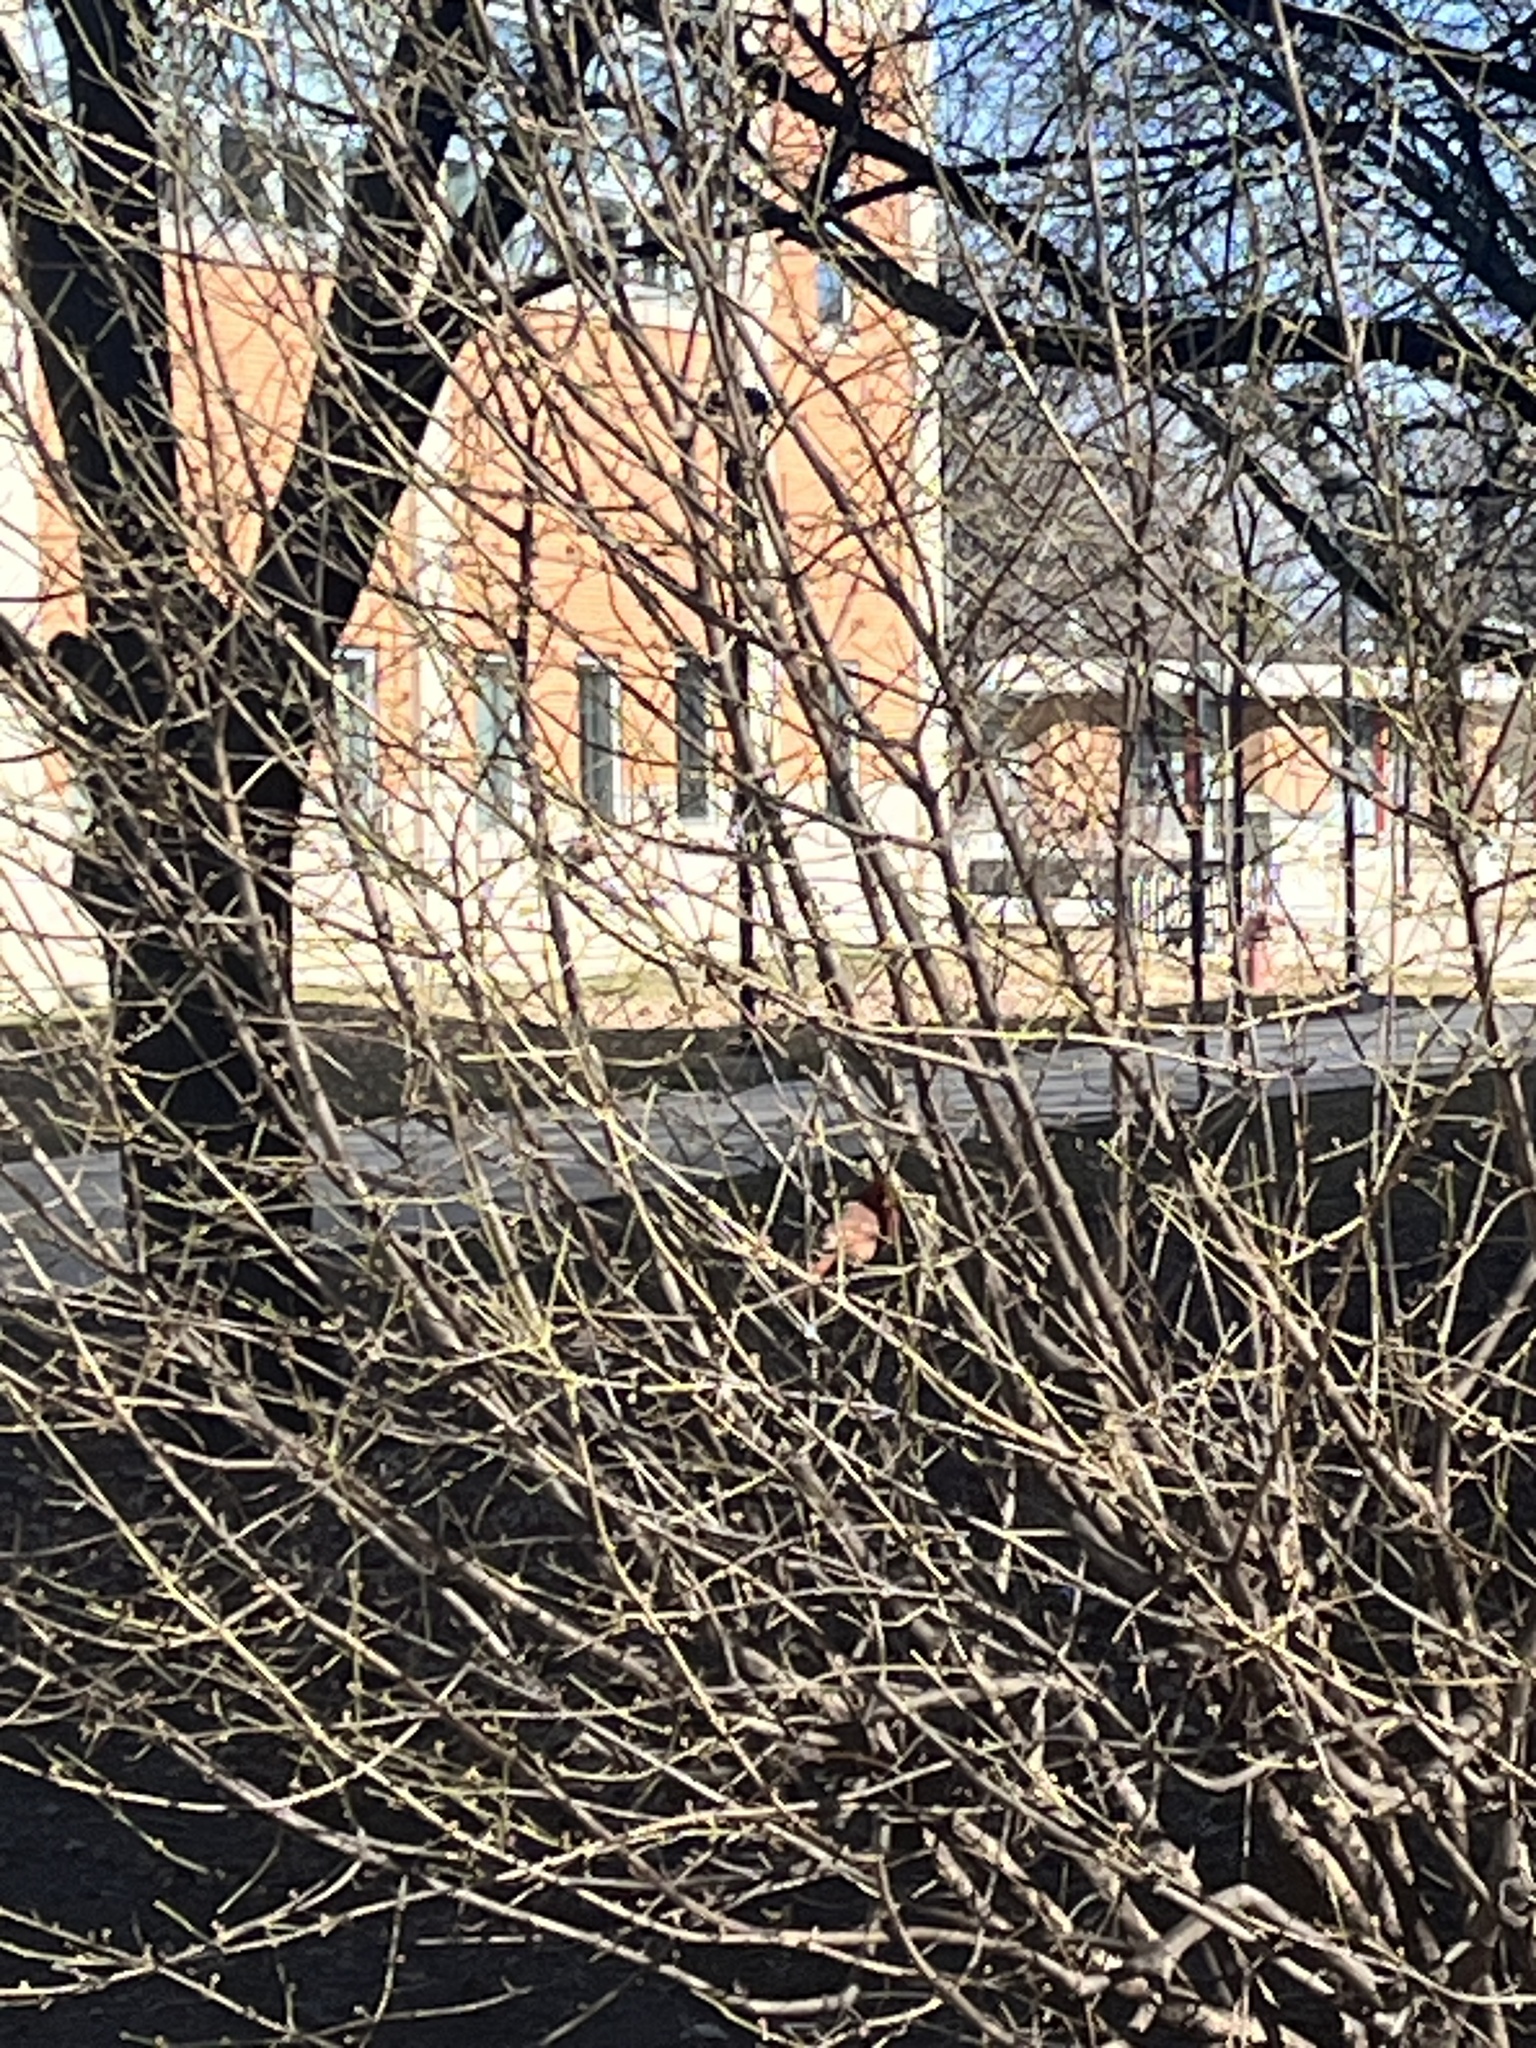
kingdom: Animalia
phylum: Chordata
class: Aves
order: Passeriformes
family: Cardinalidae
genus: Cardinalis
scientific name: Cardinalis cardinalis
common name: Northern cardinal
